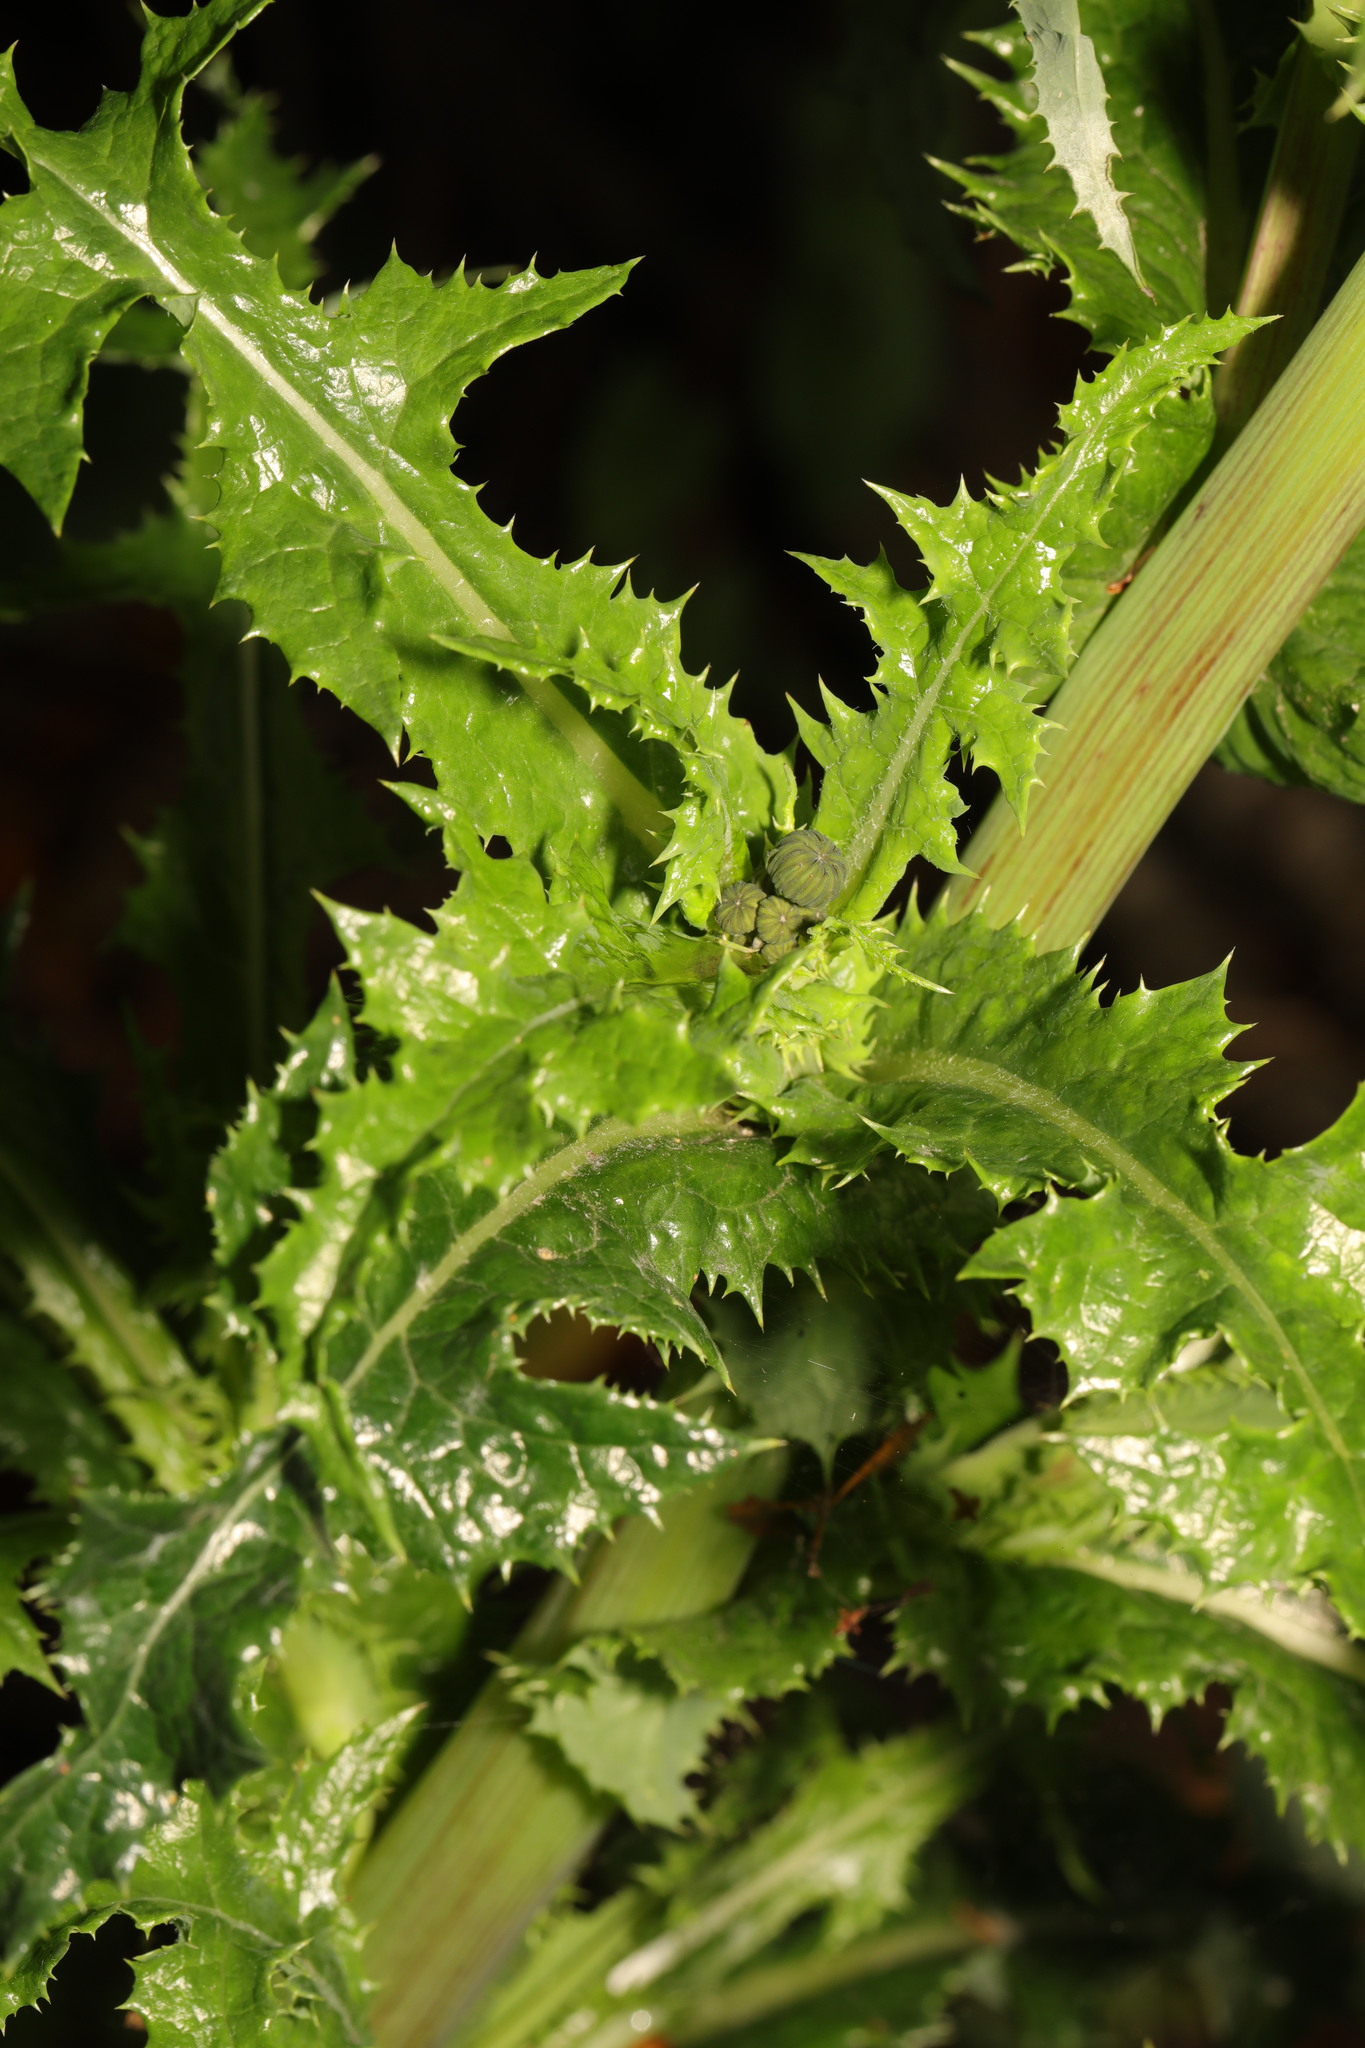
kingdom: Plantae
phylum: Tracheophyta
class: Magnoliopsida
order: Asterales
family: Asteraceae
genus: Sonchus
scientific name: Sonchus asper
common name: Prickly sow-thistle
